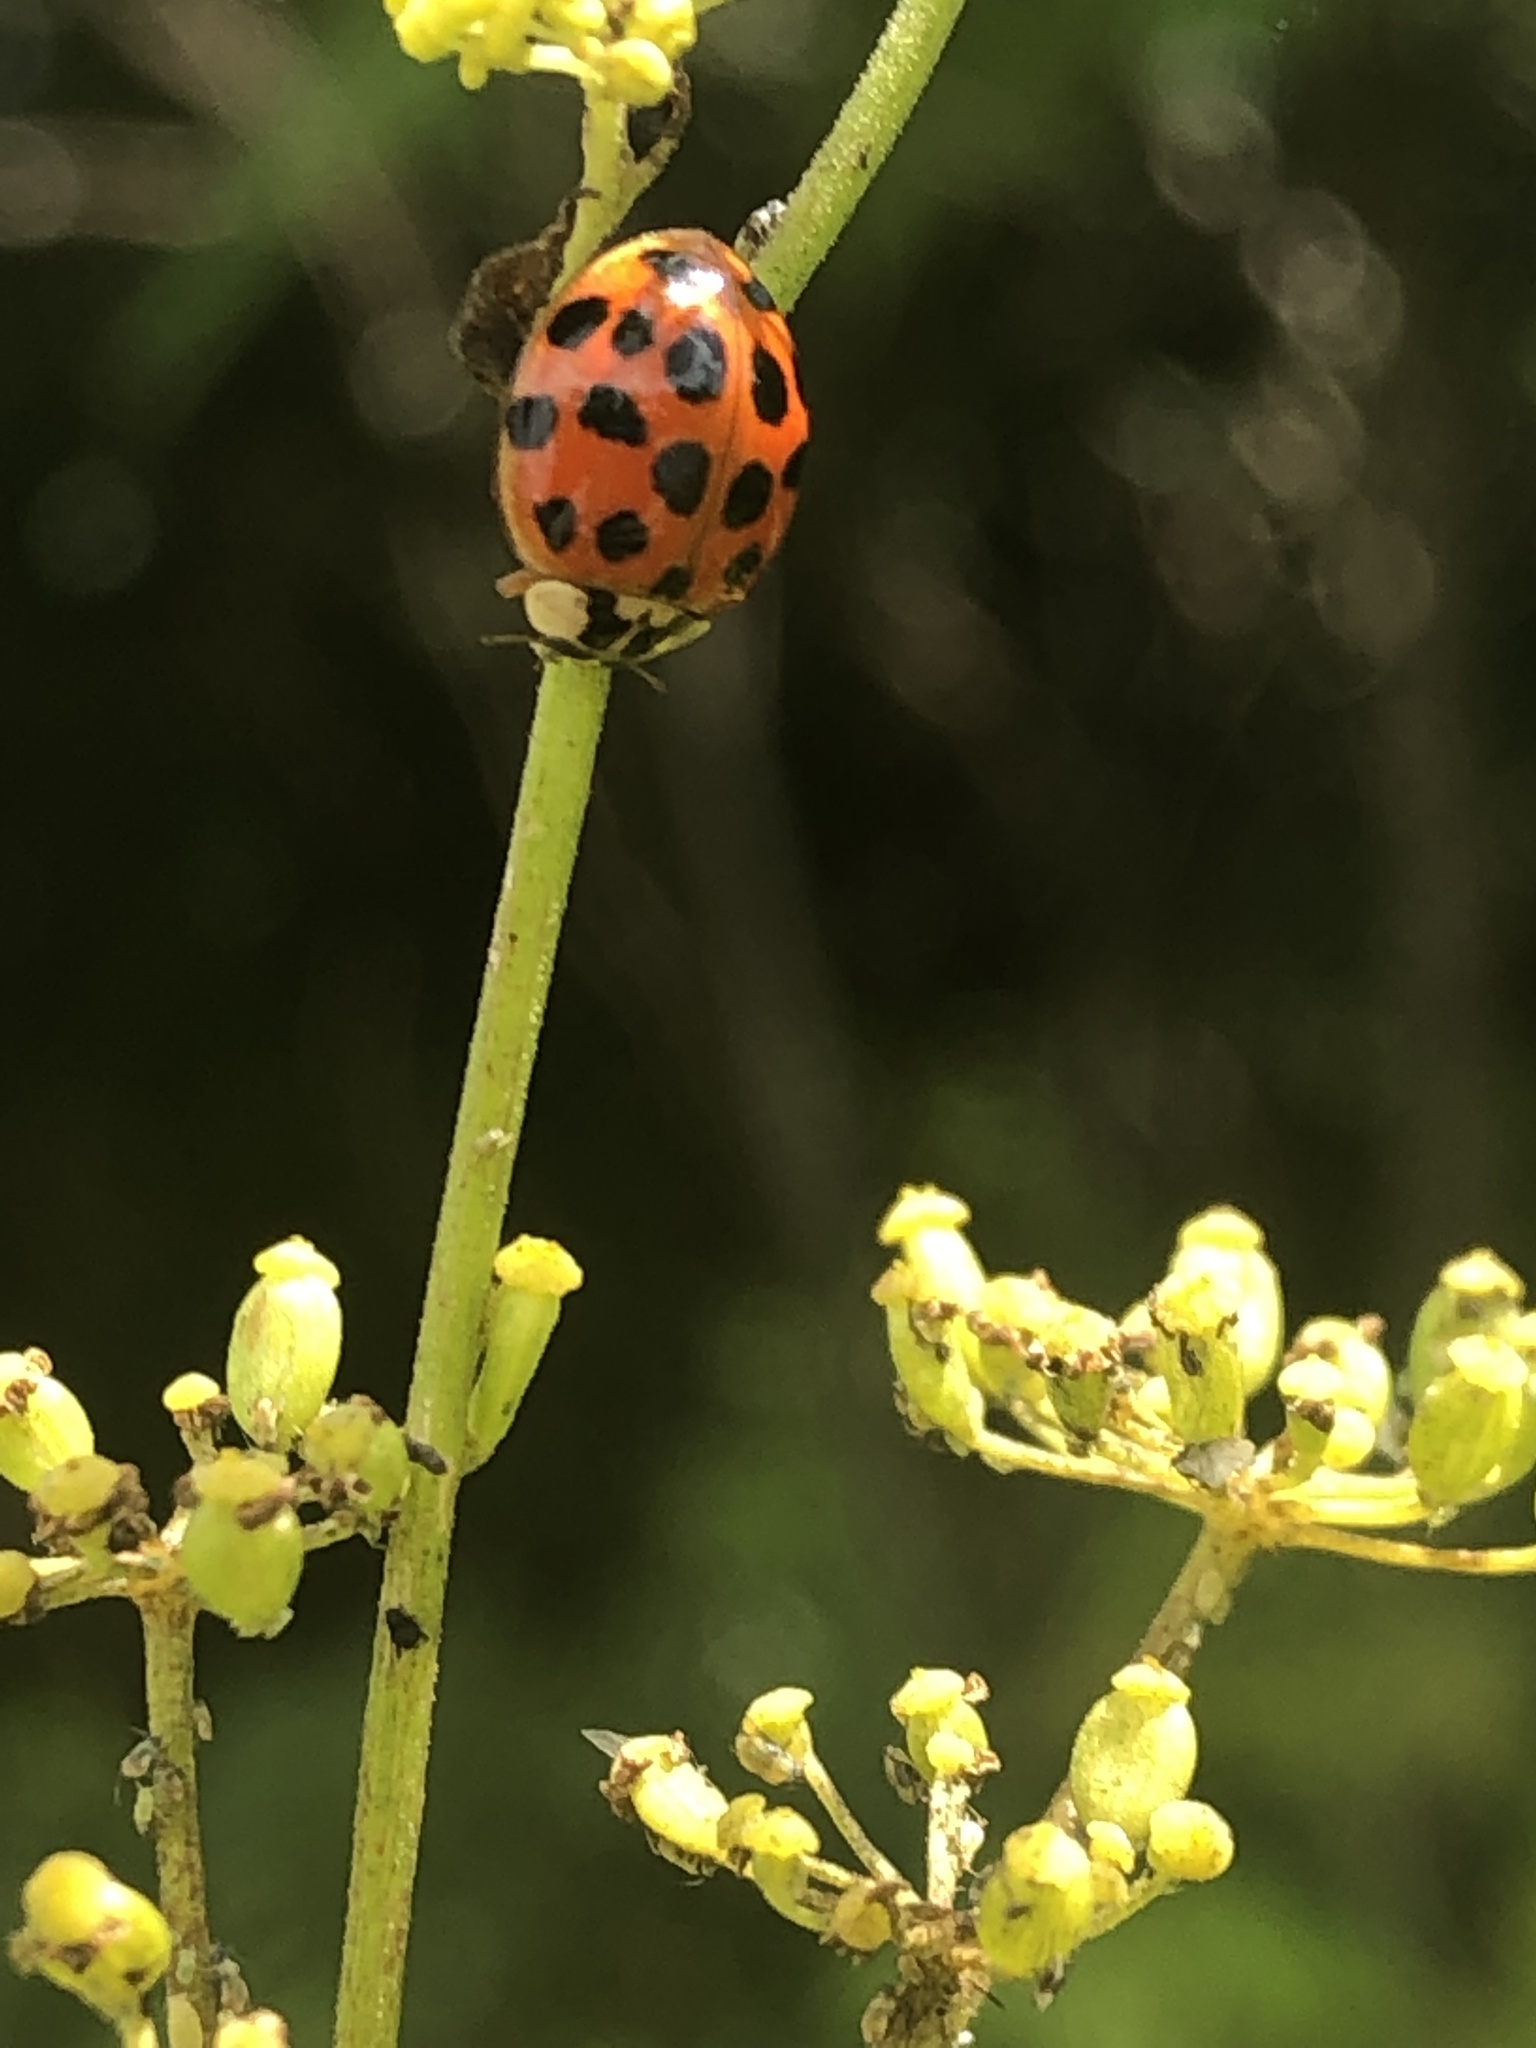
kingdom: Animalia
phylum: Arthropoda
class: Insecta
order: Coleoptera
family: Coccinellidae
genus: Harmonia
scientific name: Harmonia axyridis
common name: Harlequin ladybird
